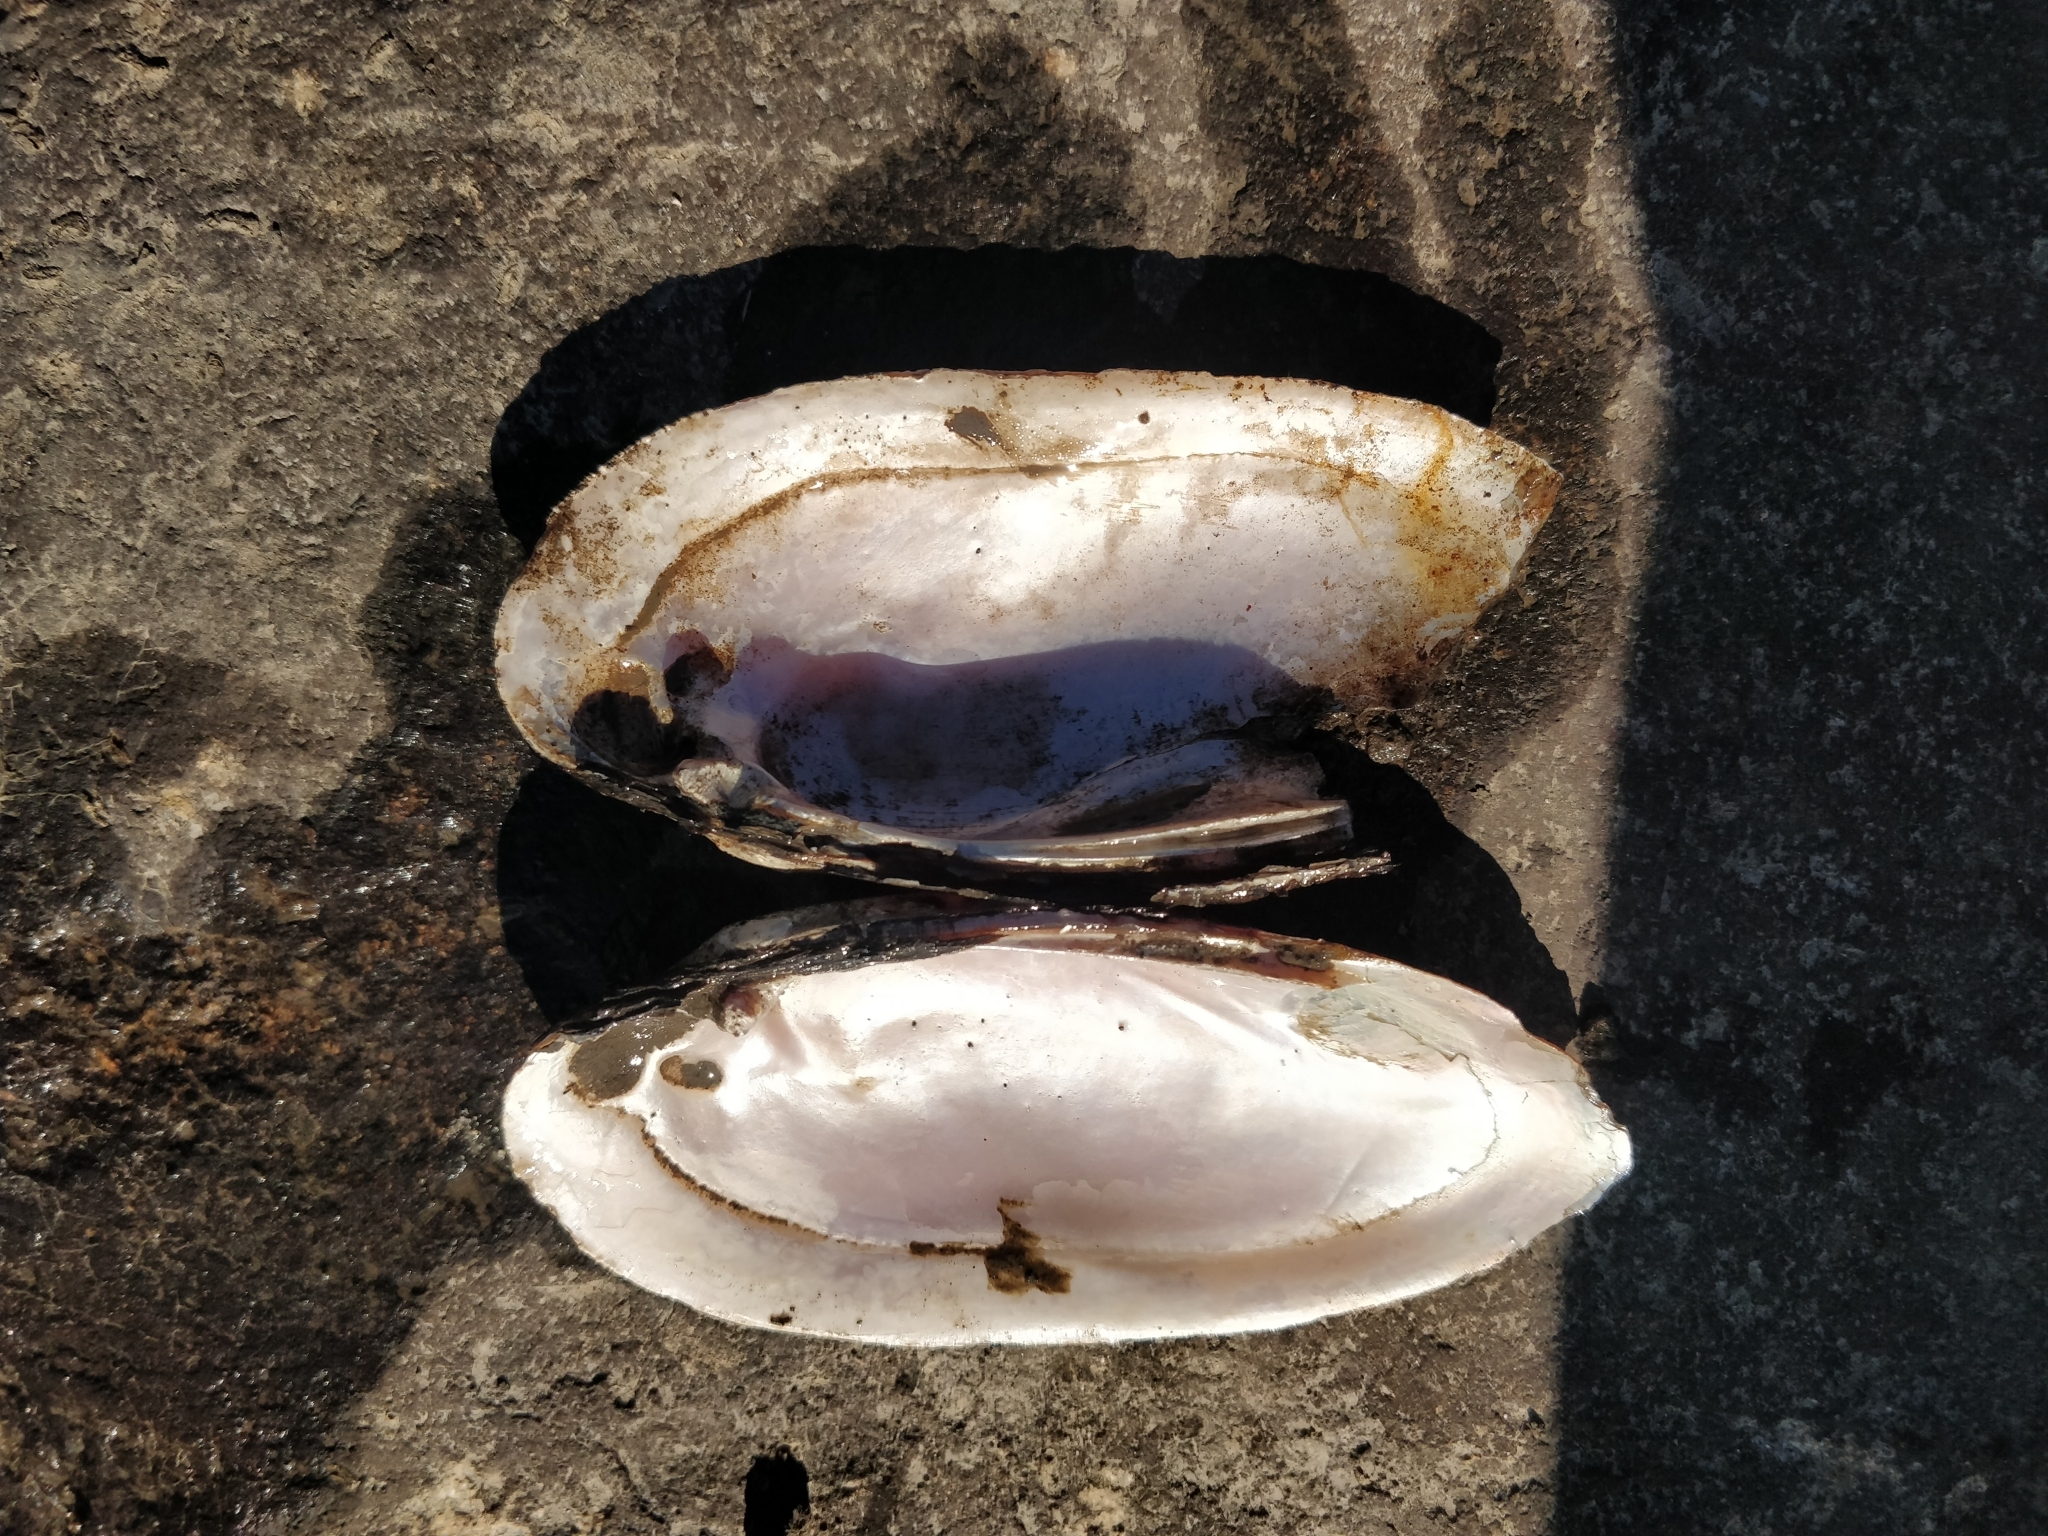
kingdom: Animalia
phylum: Mollusca
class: Bivalvia
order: Unionida
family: Unionidae
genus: Ligumia
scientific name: Ligumia recta
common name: Black sandshell
